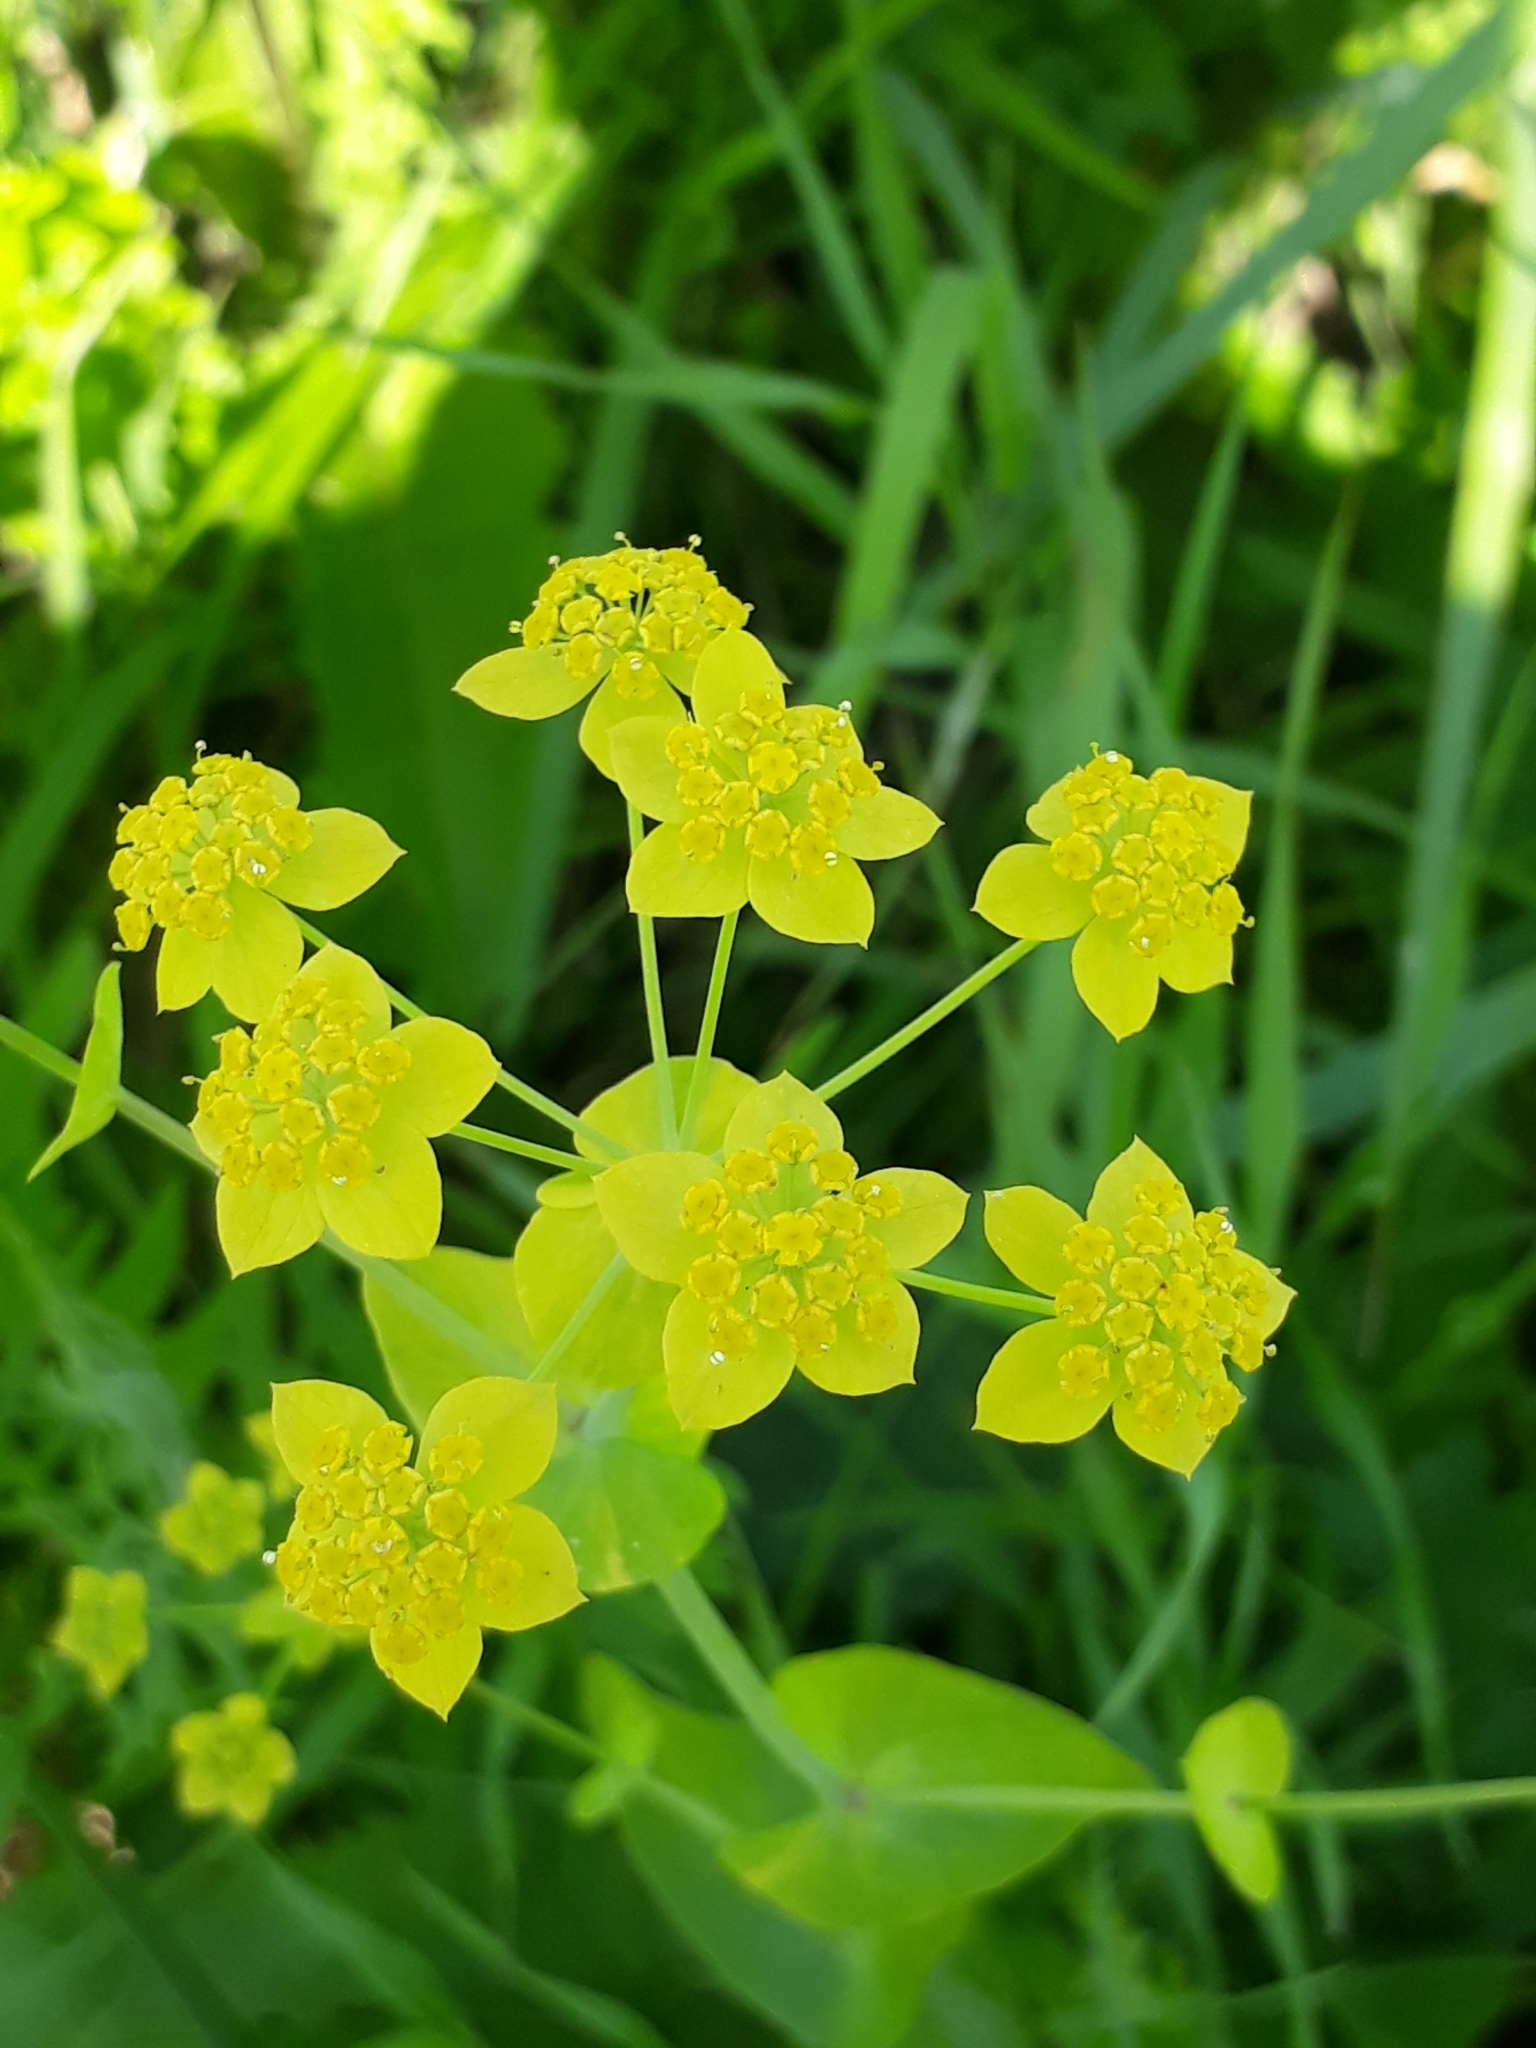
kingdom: Plantae
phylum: Tracheophyta
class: Magnoliopsida
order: Apiales
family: Apiaceae
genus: Bupleurum
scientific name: Bupleurum aureum
